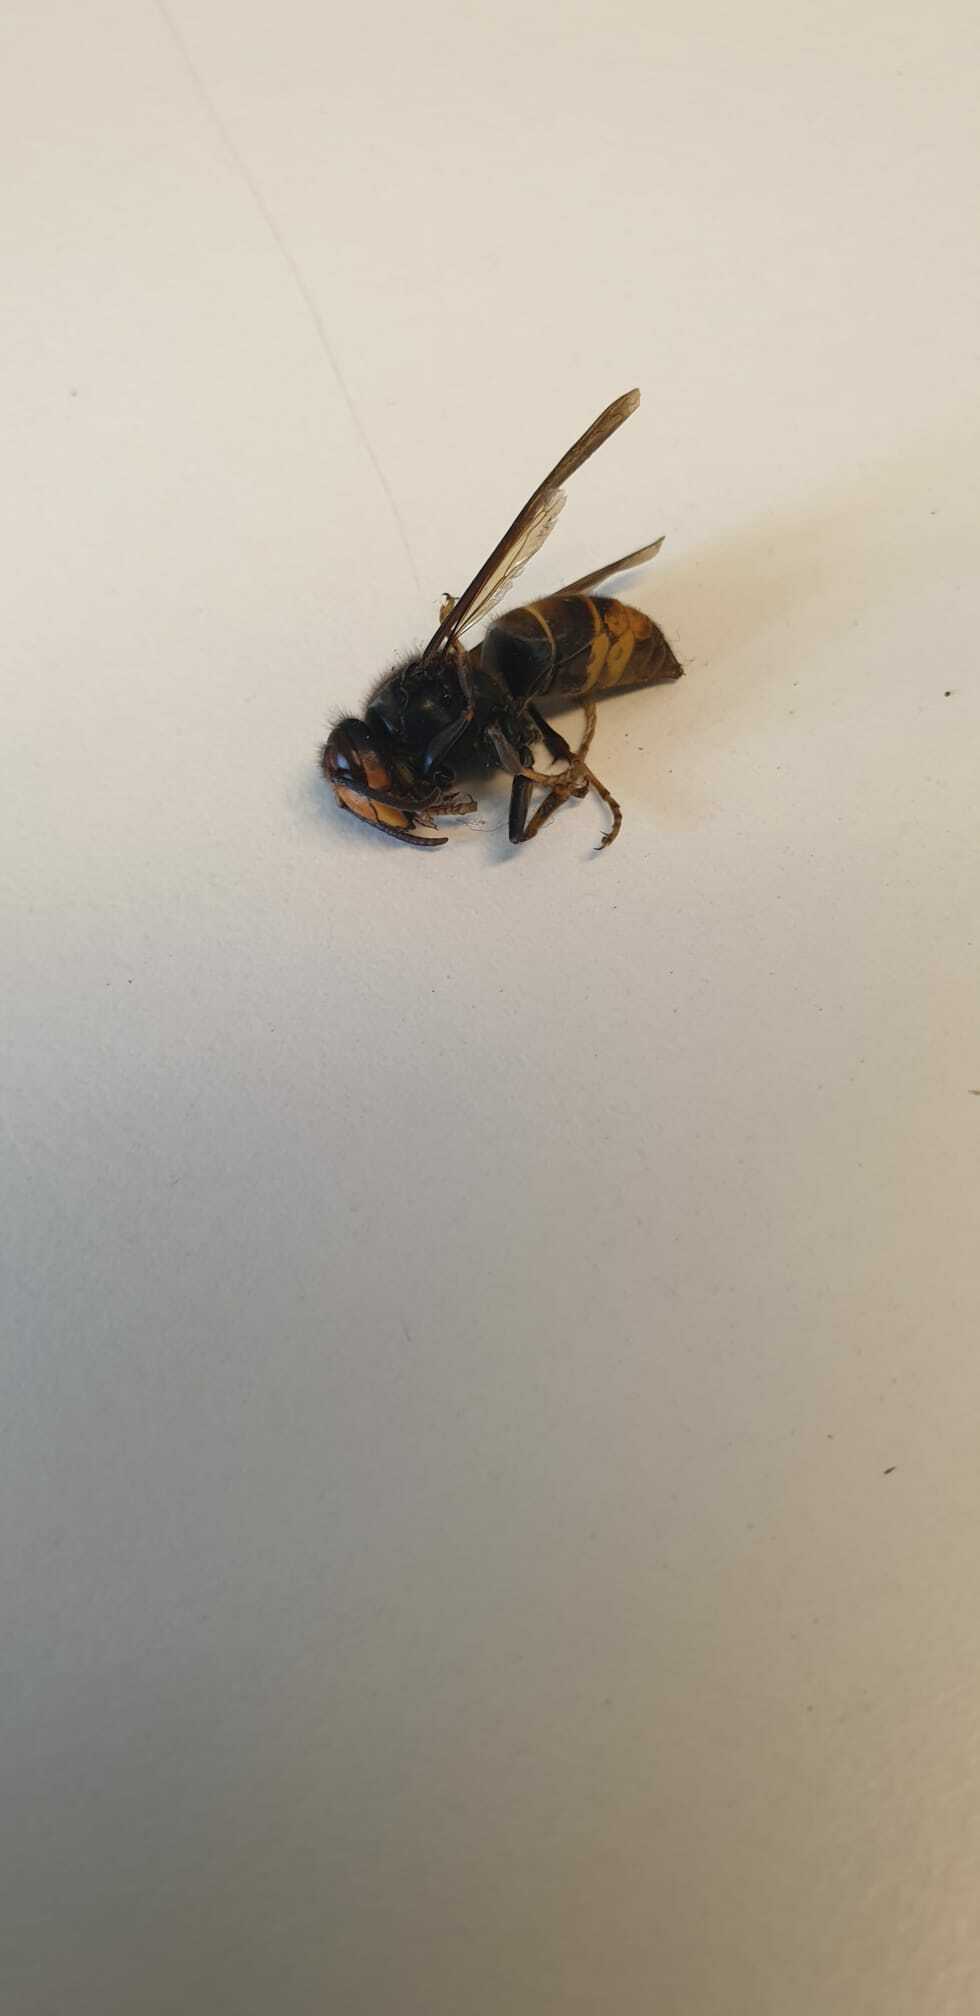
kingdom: Animalia
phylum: Arthropoda
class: Insecta
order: Hymenoptera
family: Vespidae
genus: Vespa
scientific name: Vespa velutina
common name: Asian hornet
